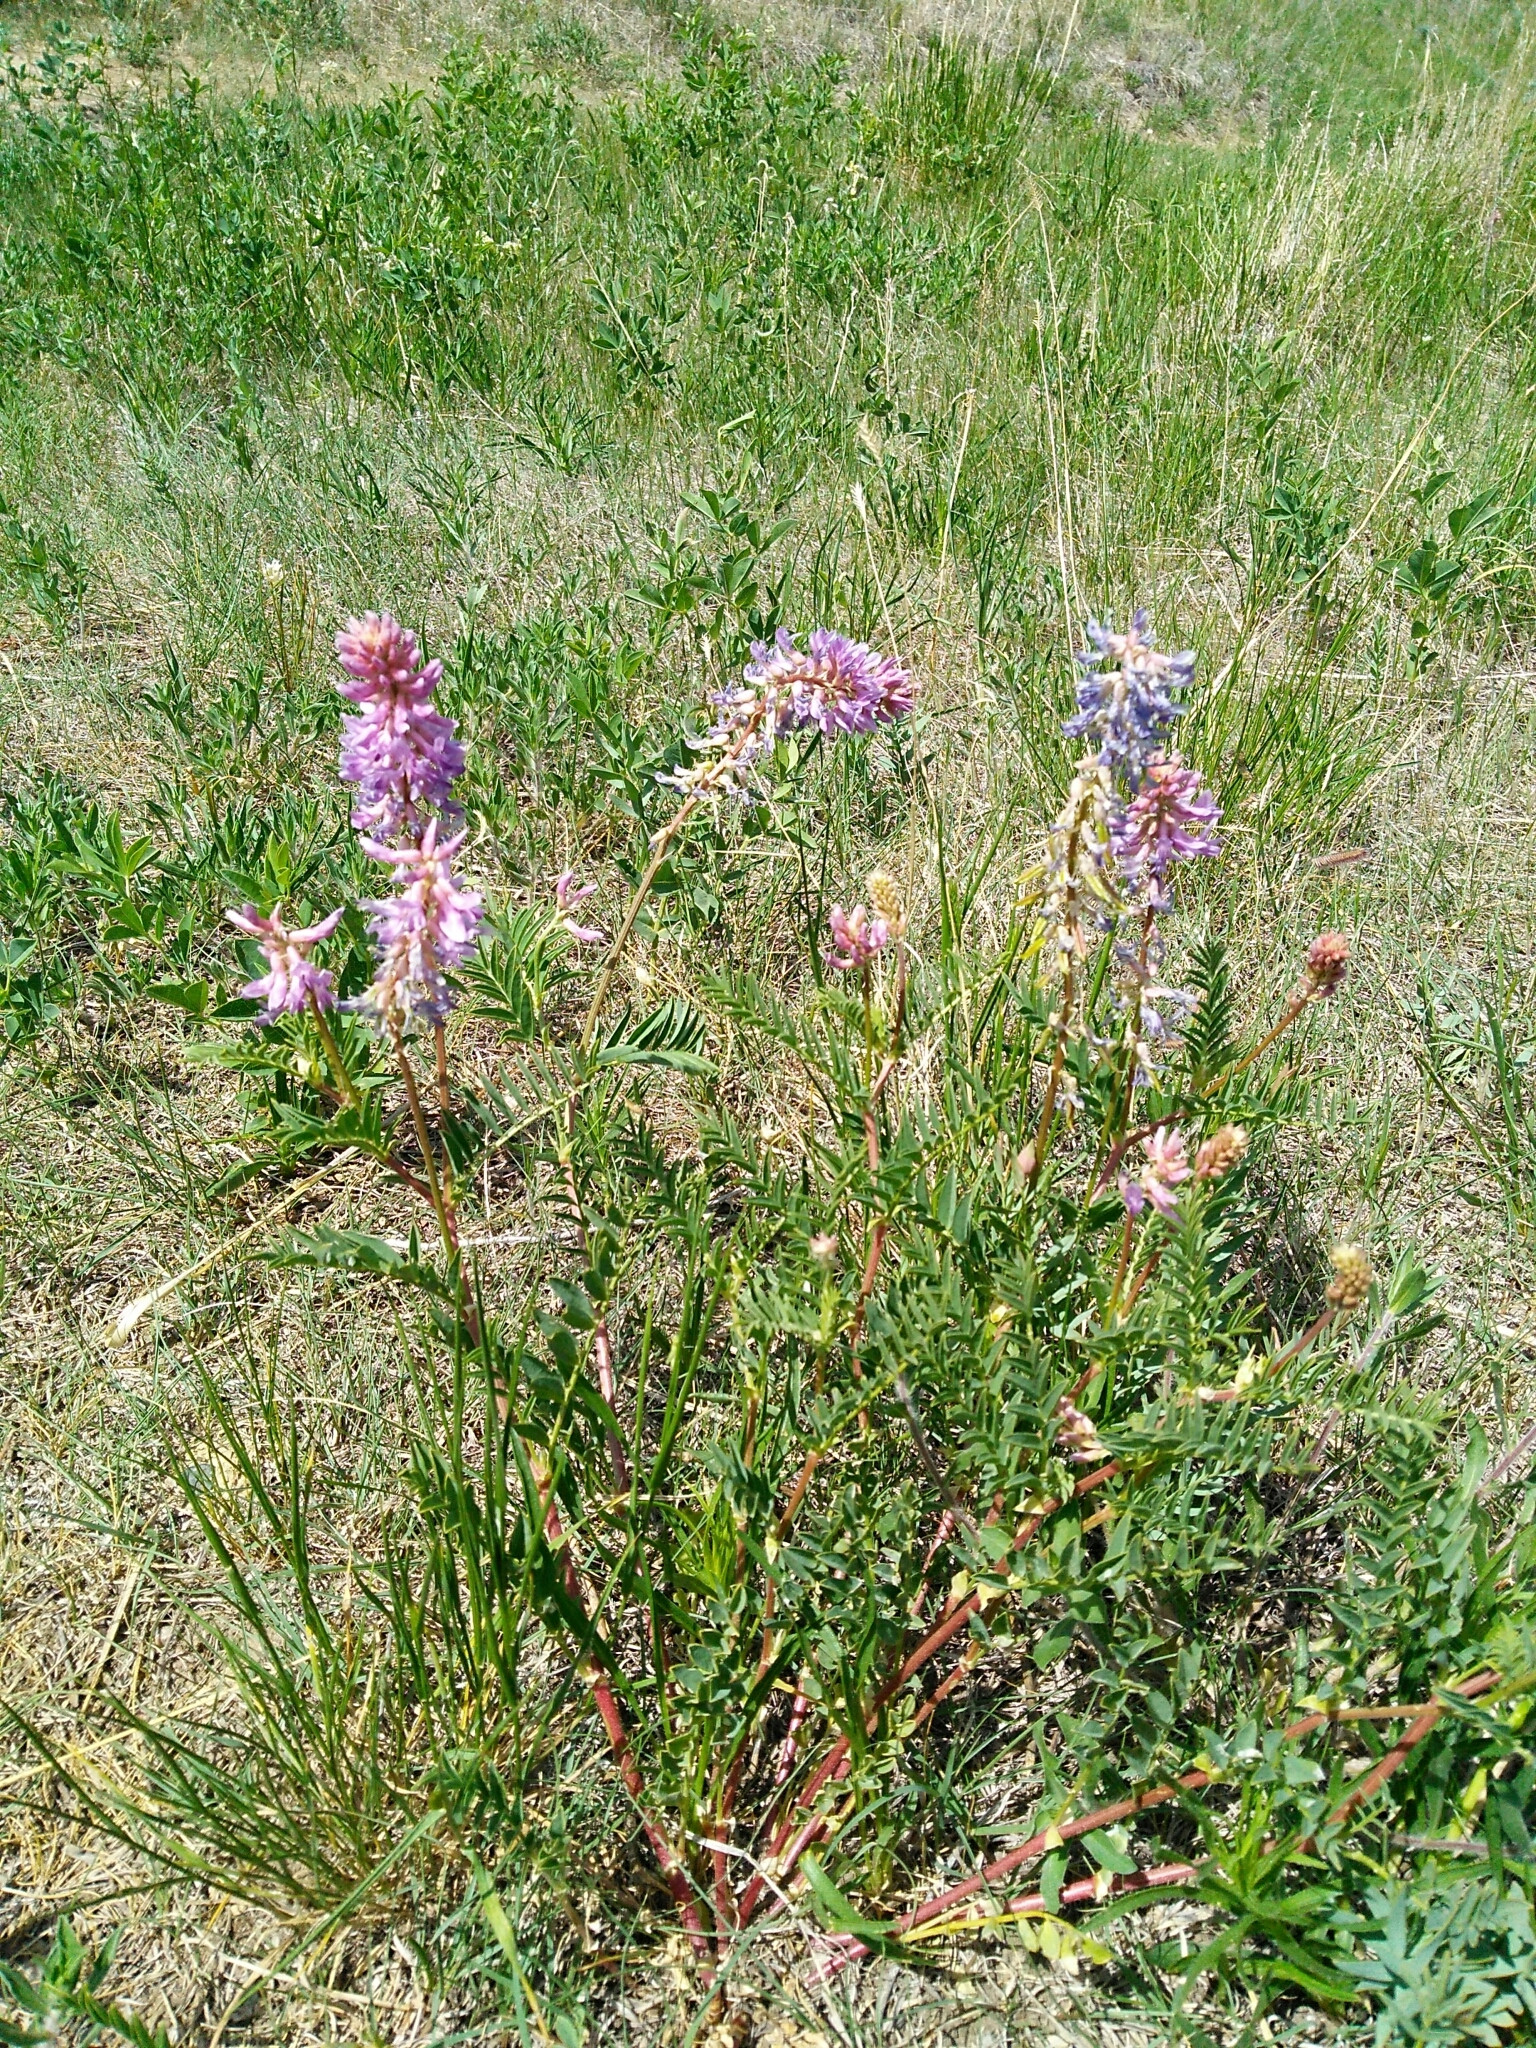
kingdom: Plantae
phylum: Tracheophyta
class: Magnoliopsida
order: Fabales
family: Fabaceae
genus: Astragalus
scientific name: Astragalus bisulcatus
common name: Two-groove milk-vetch
